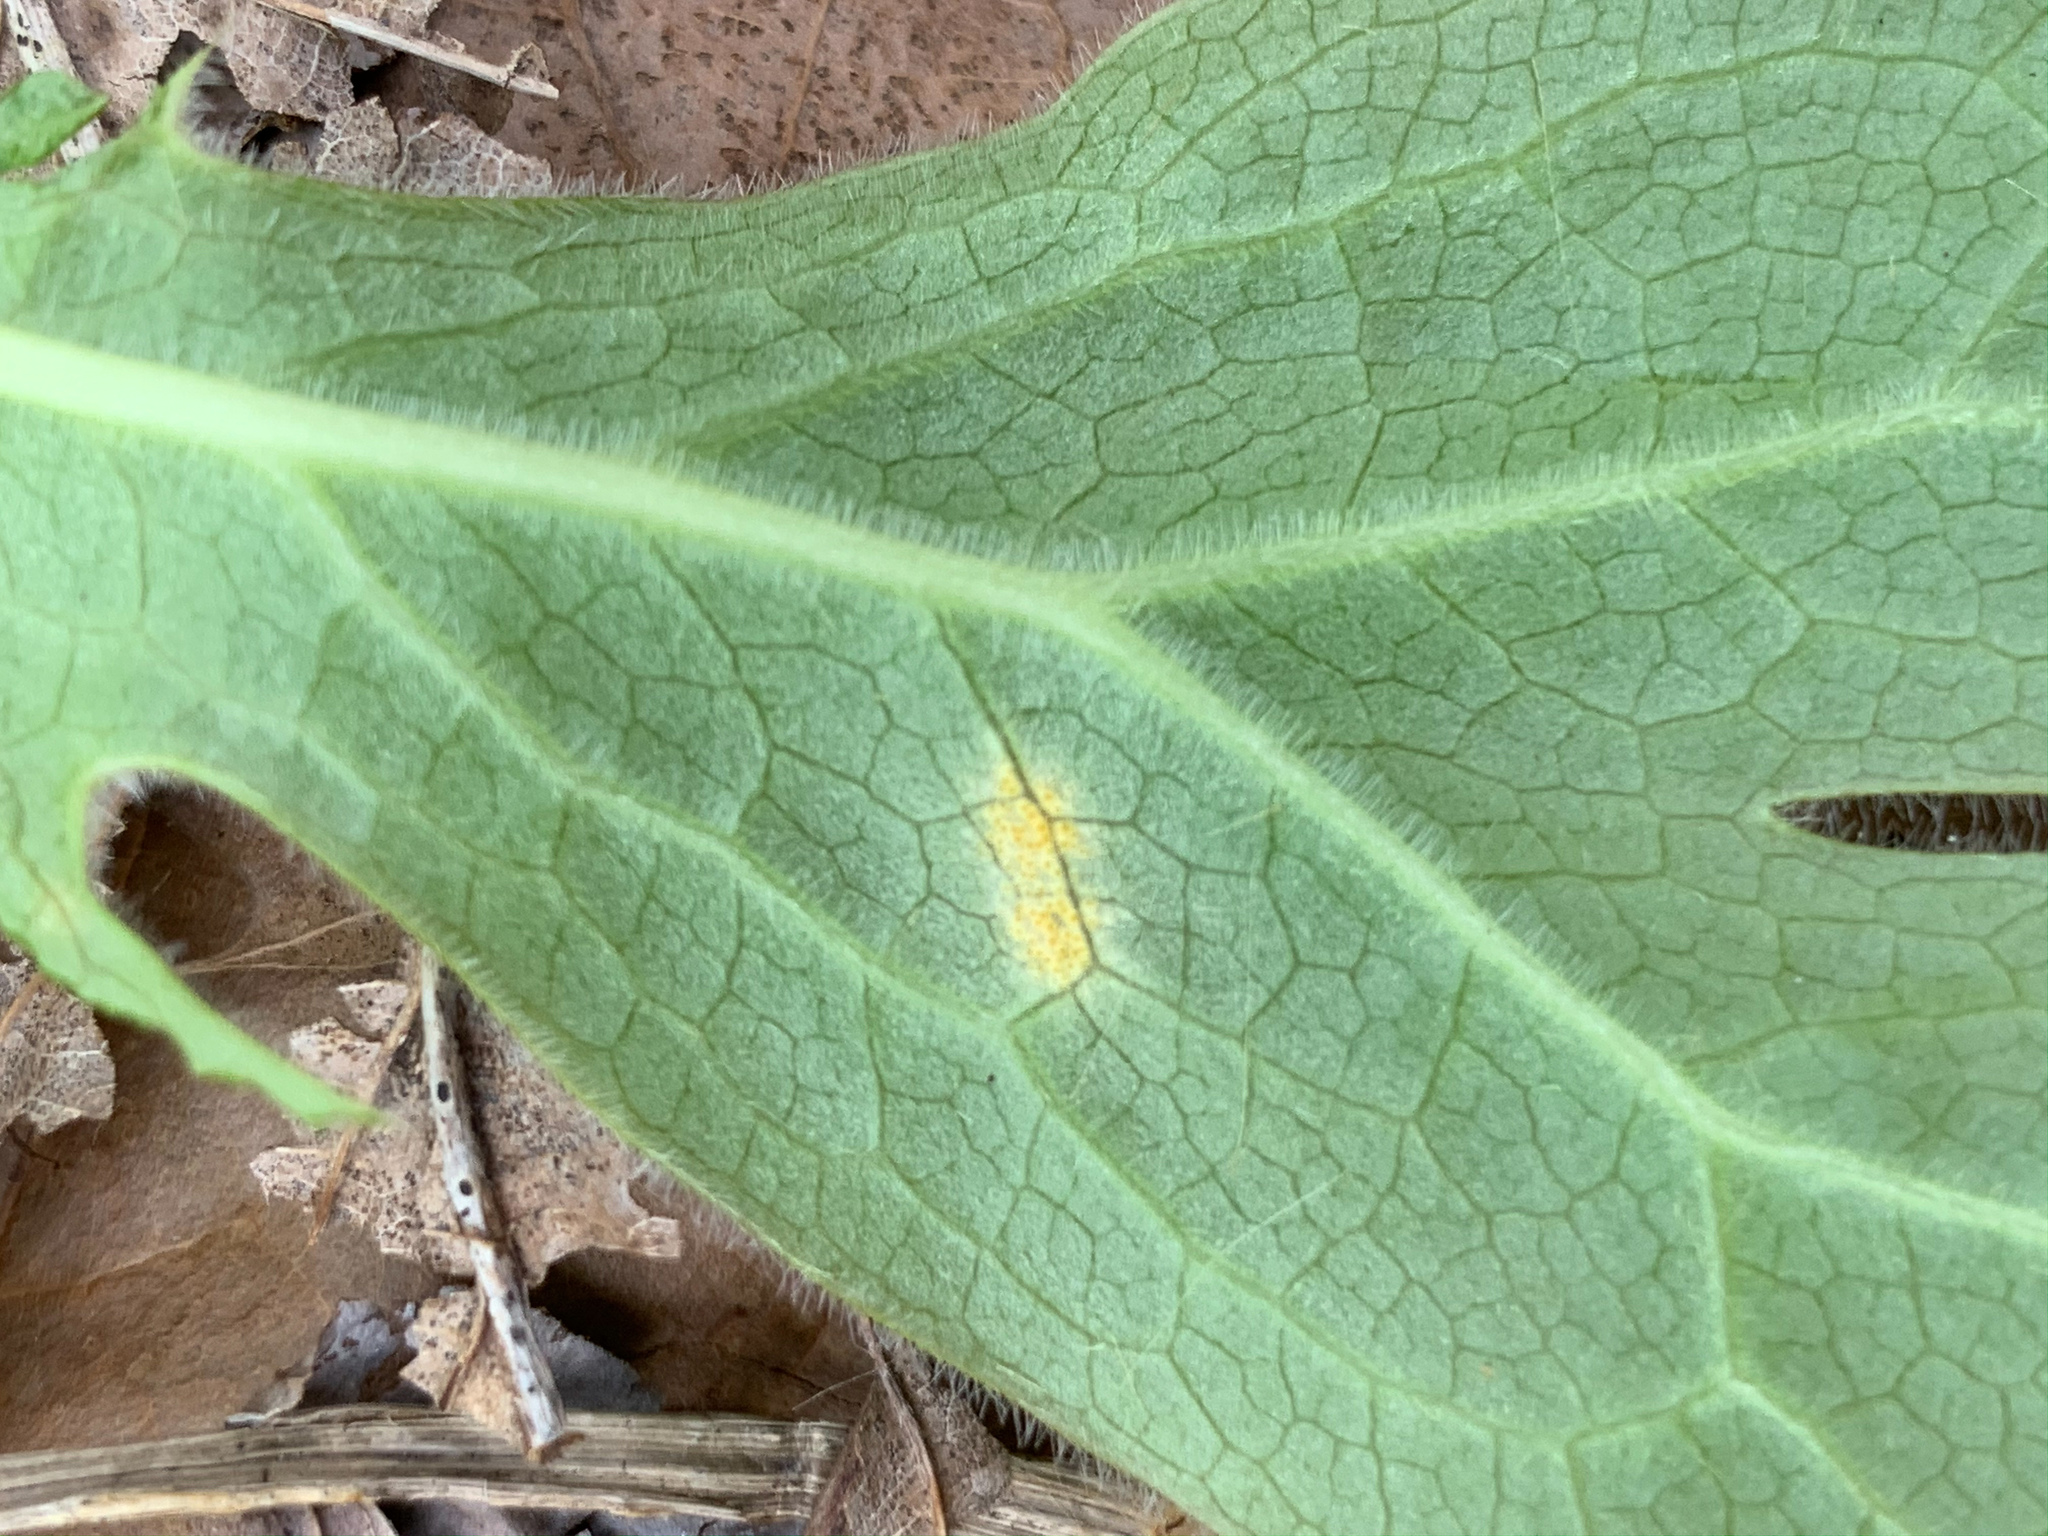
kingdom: Fungi
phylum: Basidiomycota
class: Pucciniomycetes
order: Pucciniales
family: Pucciniaceae
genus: Puccinia
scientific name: Puccinia podophylli
